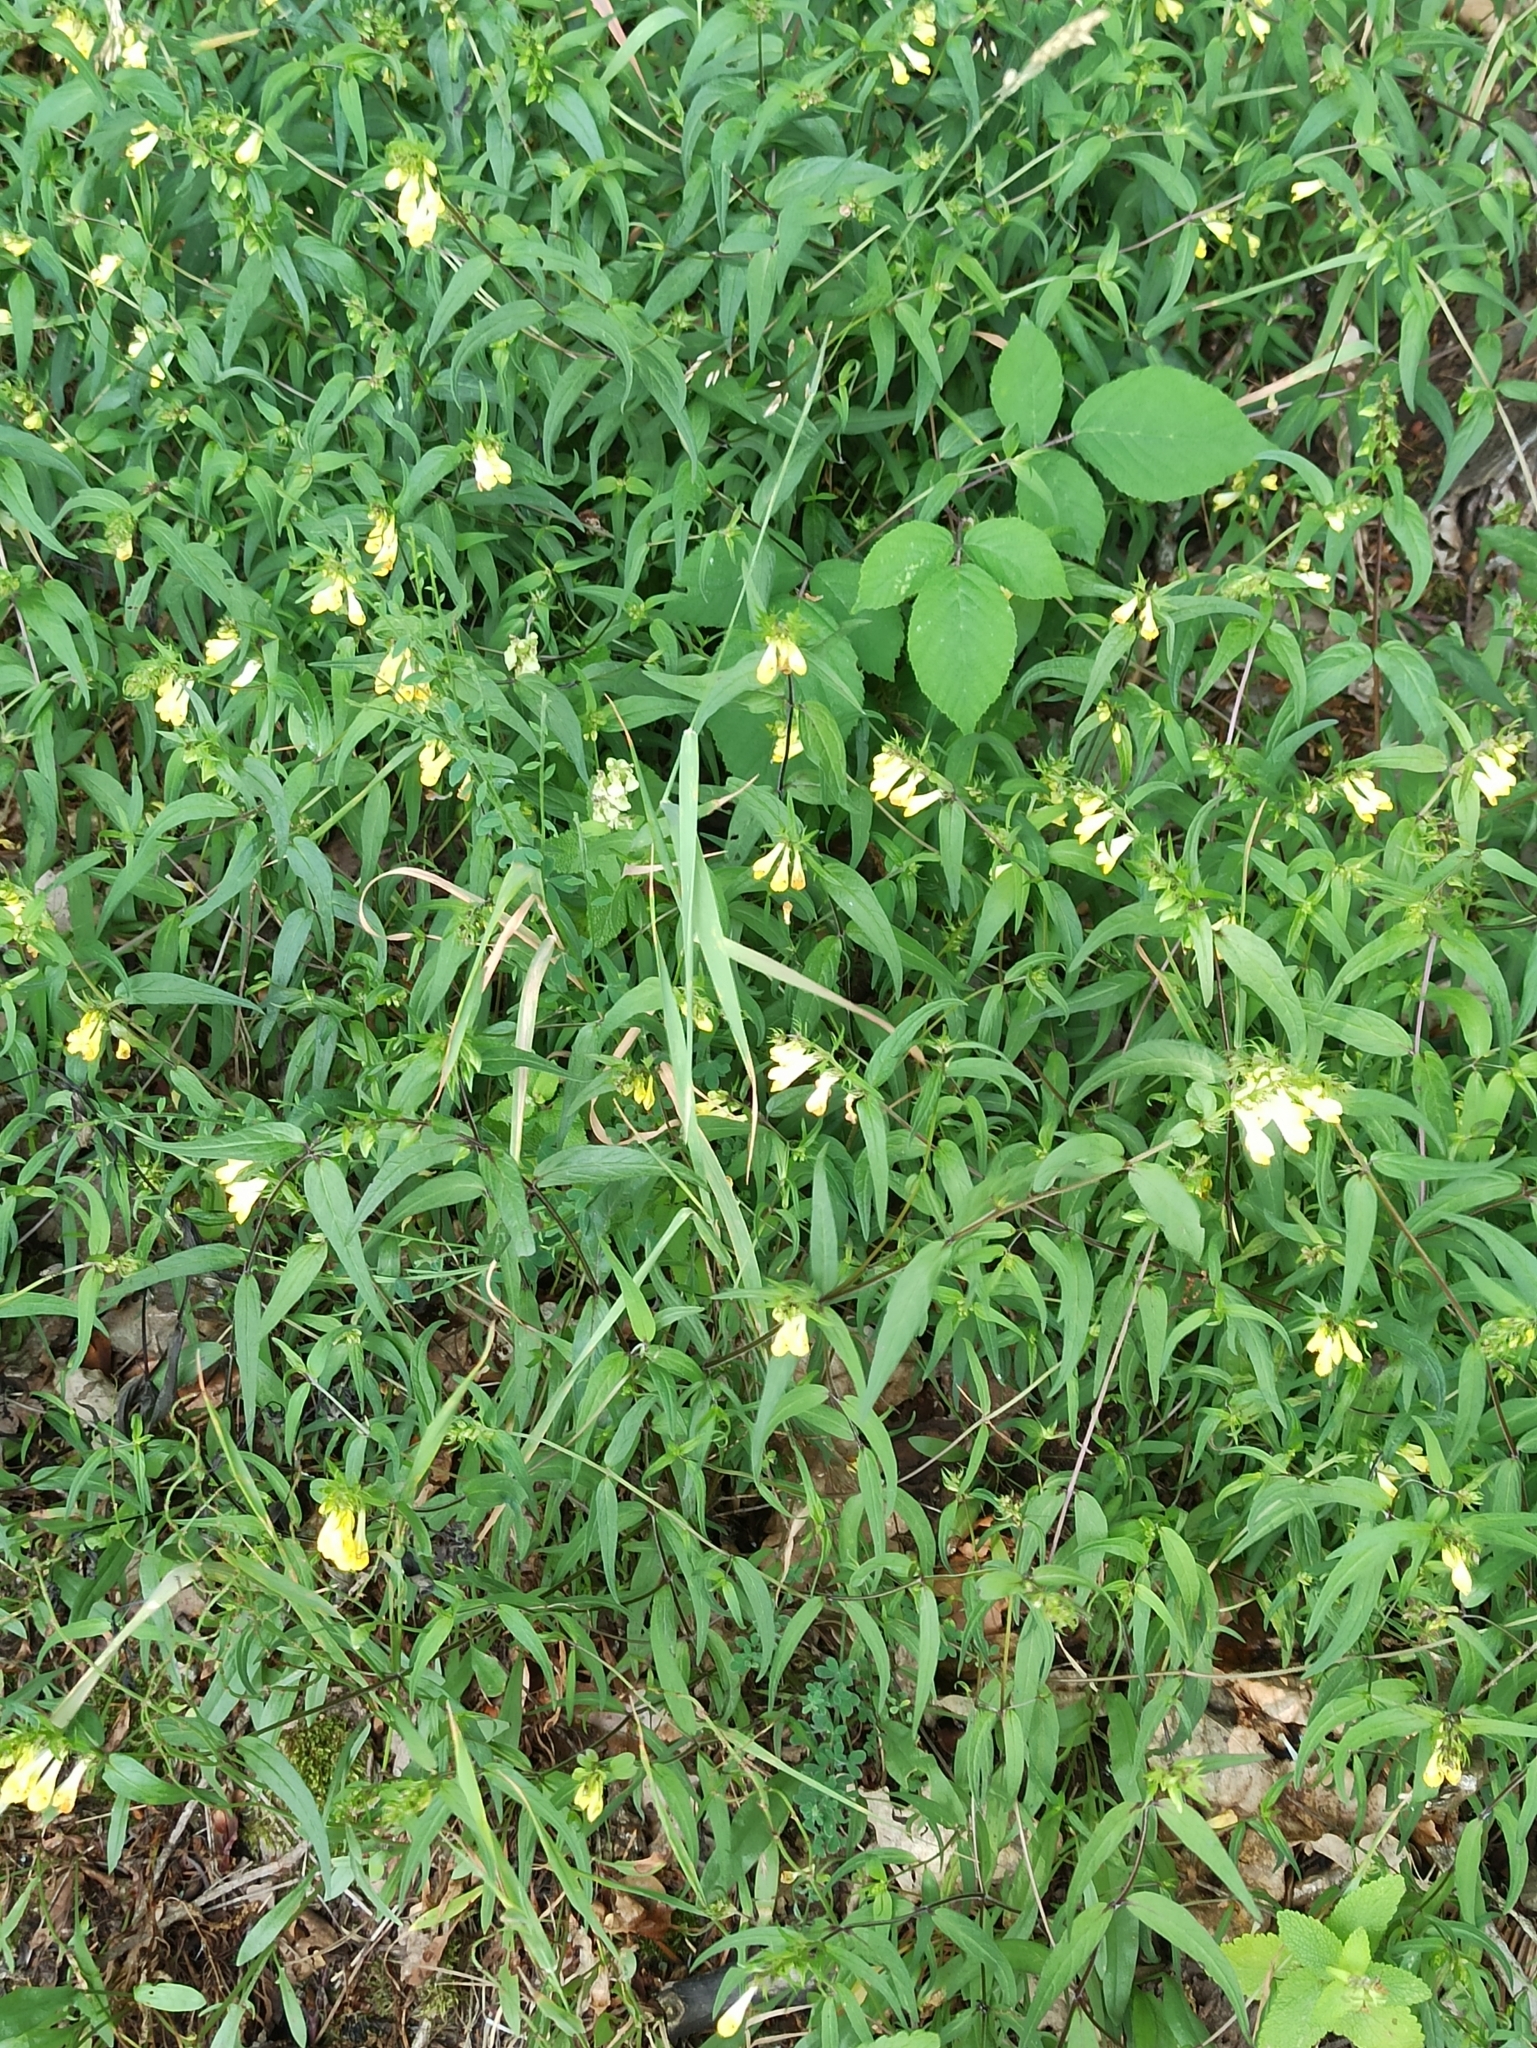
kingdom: Plantae
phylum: Tracheophyta
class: Magnoliopsida
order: Lamiales
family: Orobanchaceae
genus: Melampyrum
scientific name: Melampyrum pratense
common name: Common cow-wheat
